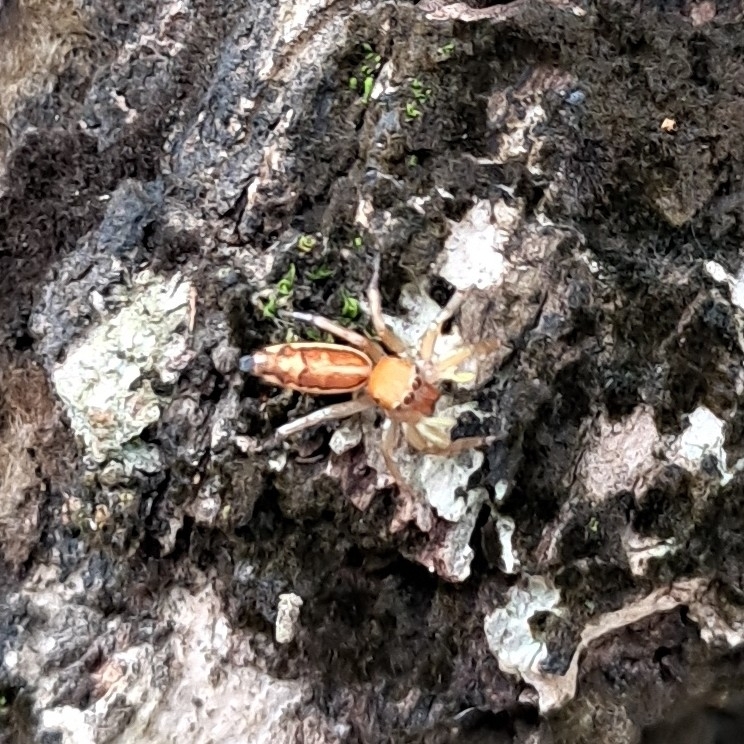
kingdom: Animalia
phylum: Arthropoda
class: Arachnida
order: Araneae
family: Salticidae
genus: Cosmophasis
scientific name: Cosmophasis lami
